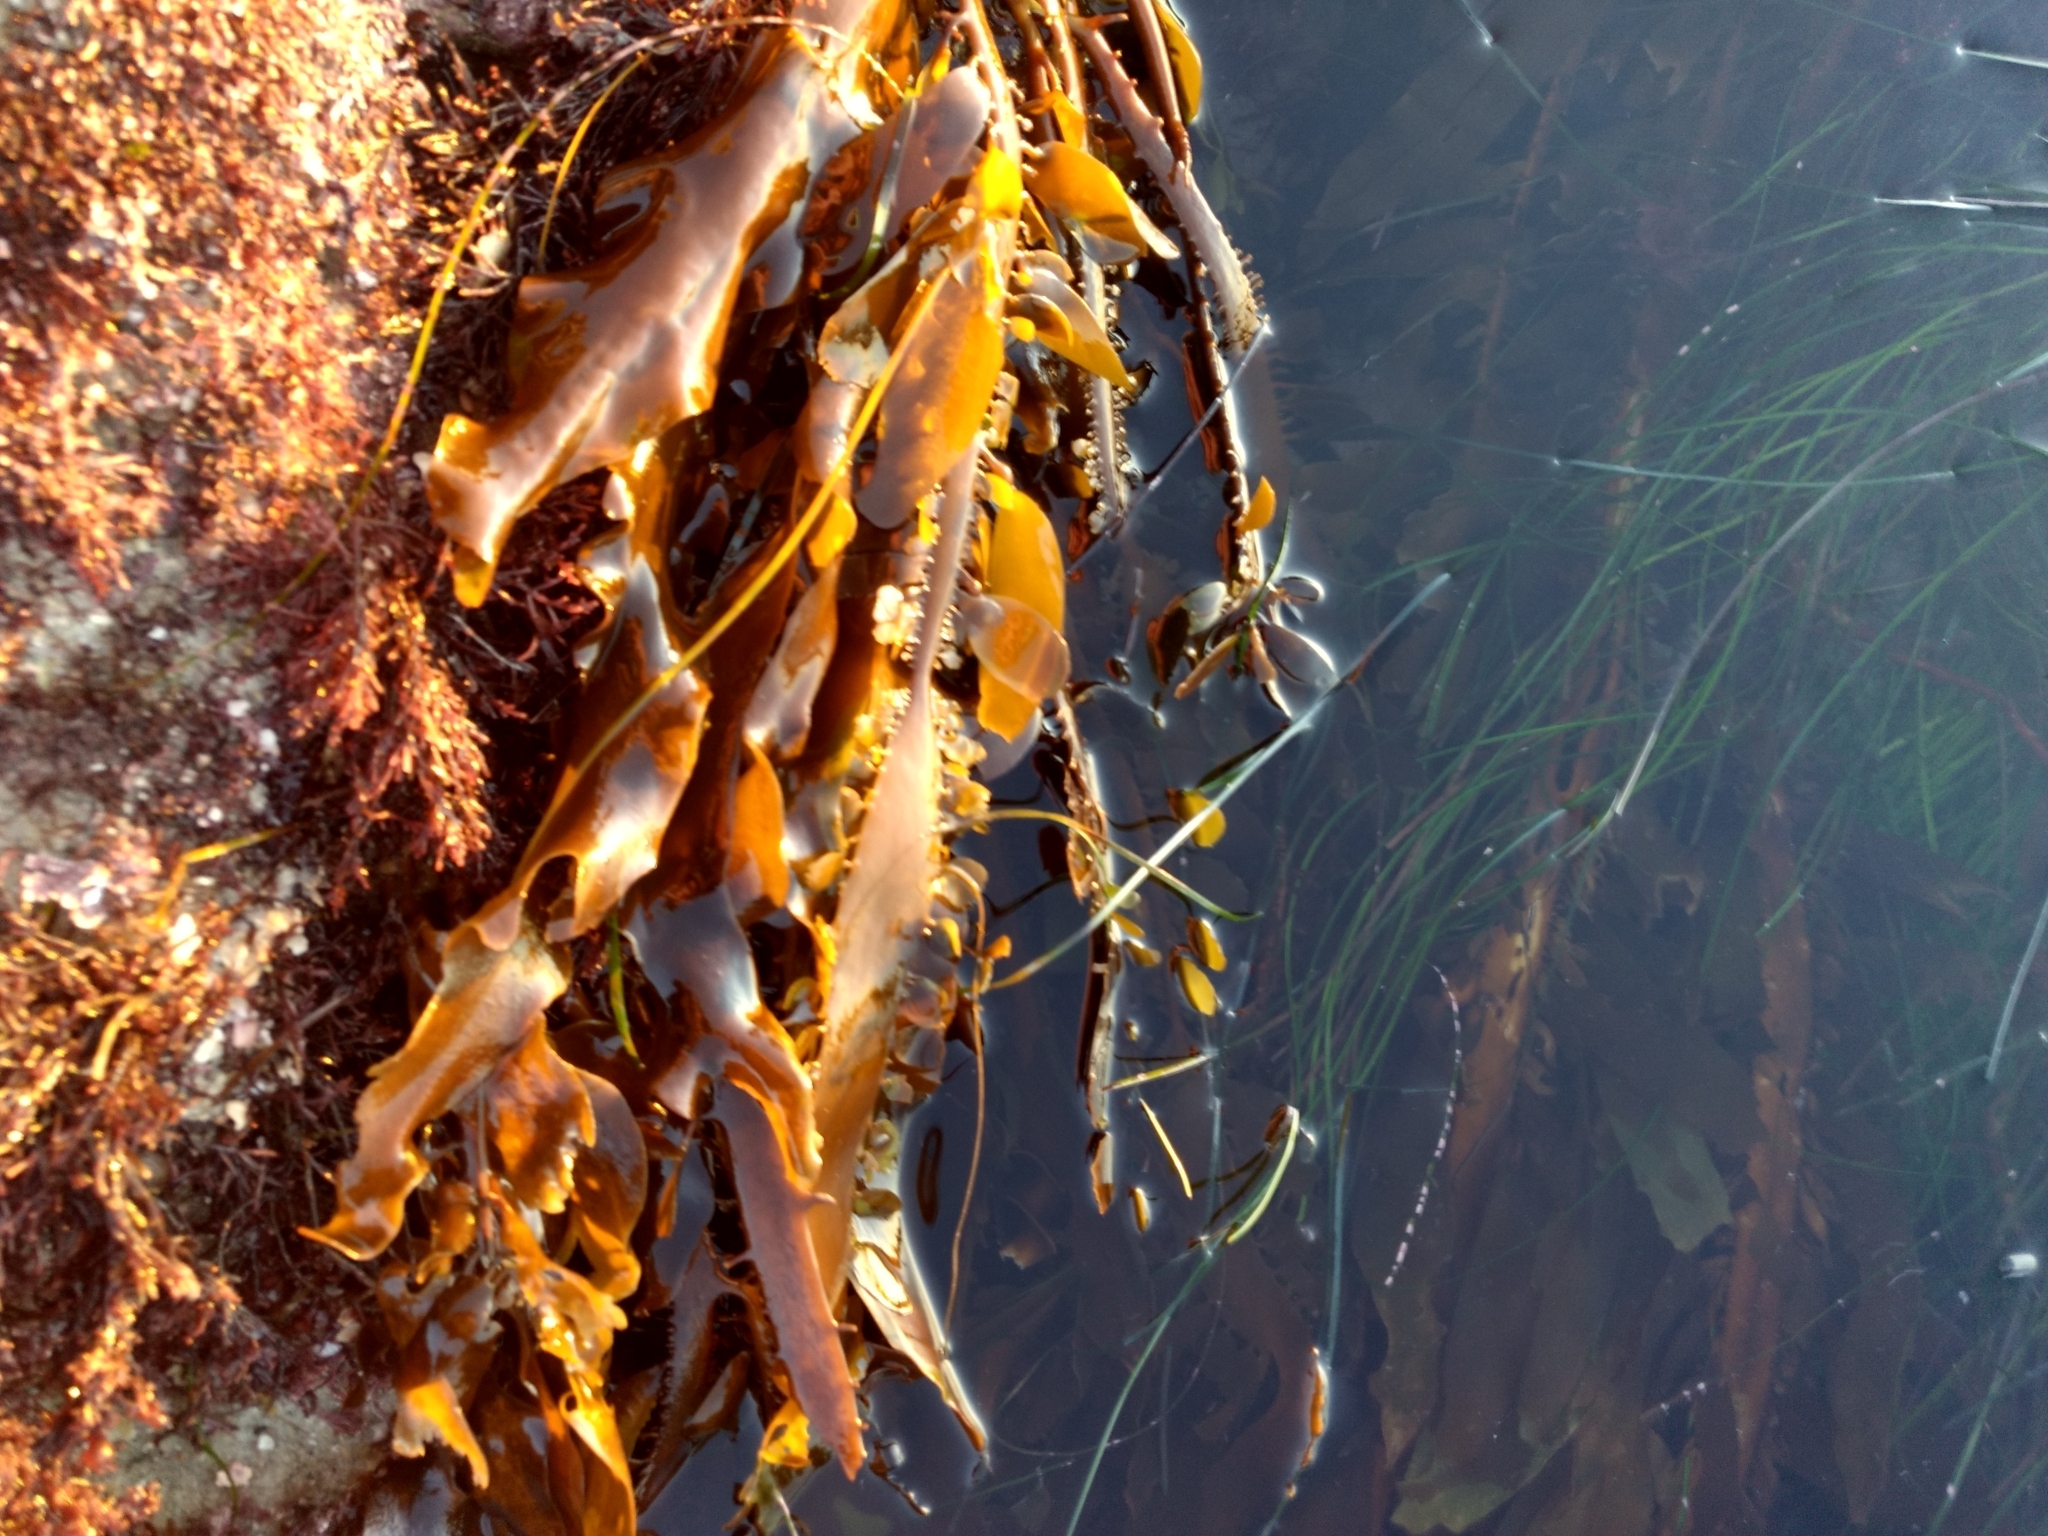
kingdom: Chromista
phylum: Ochrophyta
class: Phaeophyceae
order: Laminariales
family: Lessoniaceae
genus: Egregia
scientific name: Egregia menziesii
